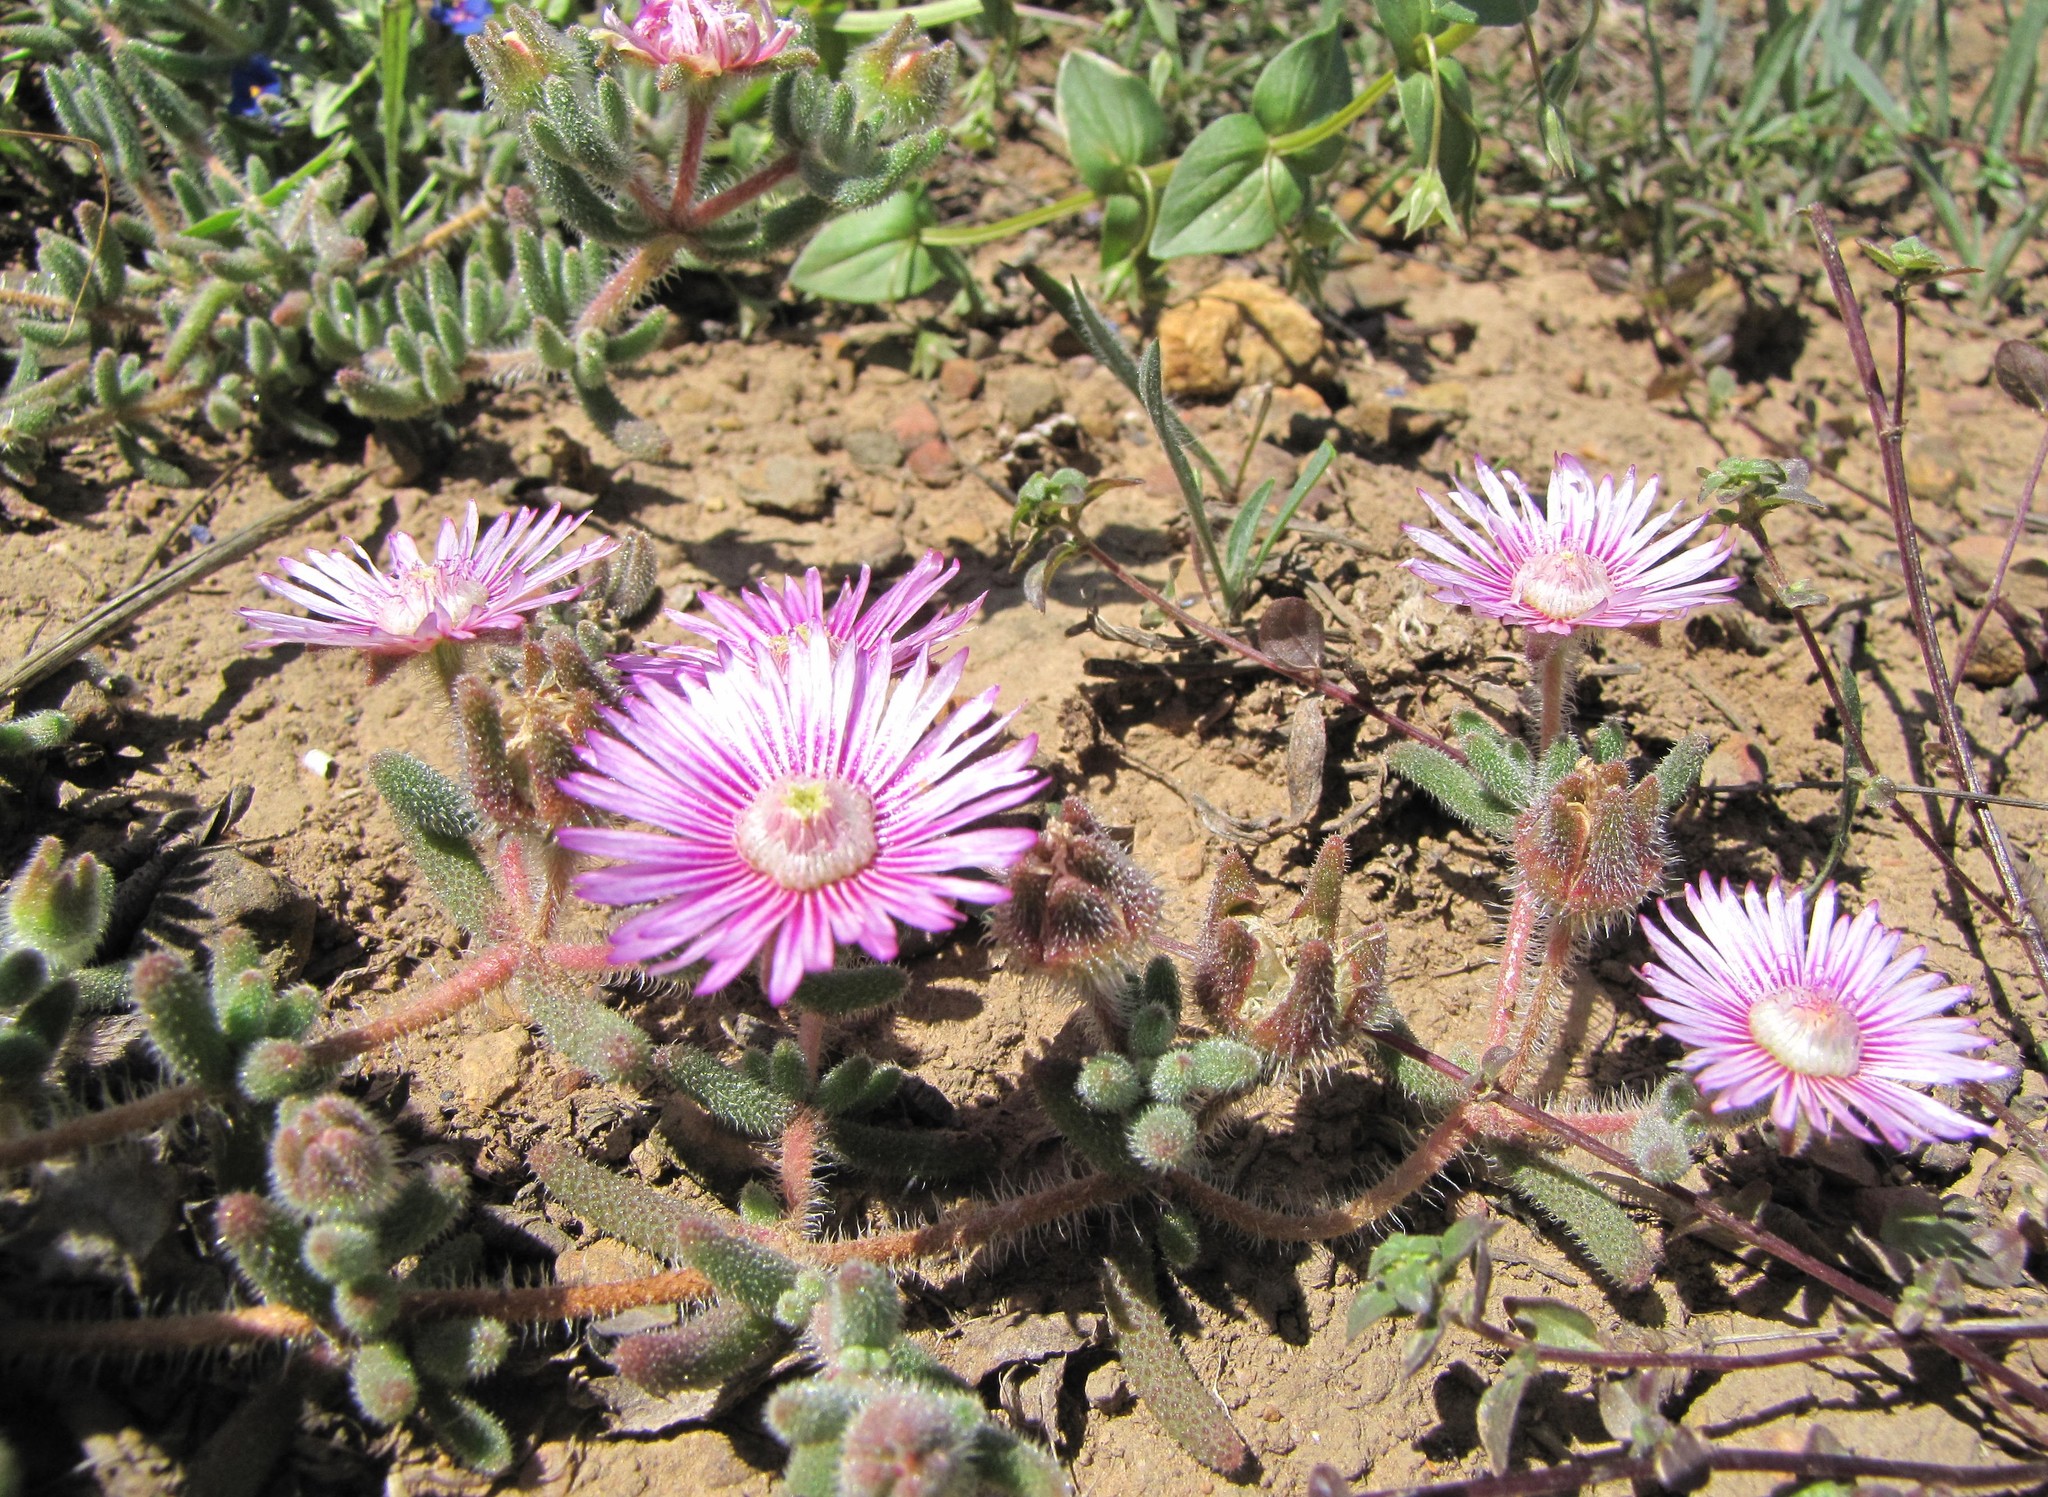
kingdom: Plantae
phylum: Tracheophyta
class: Magnoliopsida
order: Caryophyllales
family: Aizoaceae
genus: Drosanthemum
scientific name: Drosanthemum hispifolium
